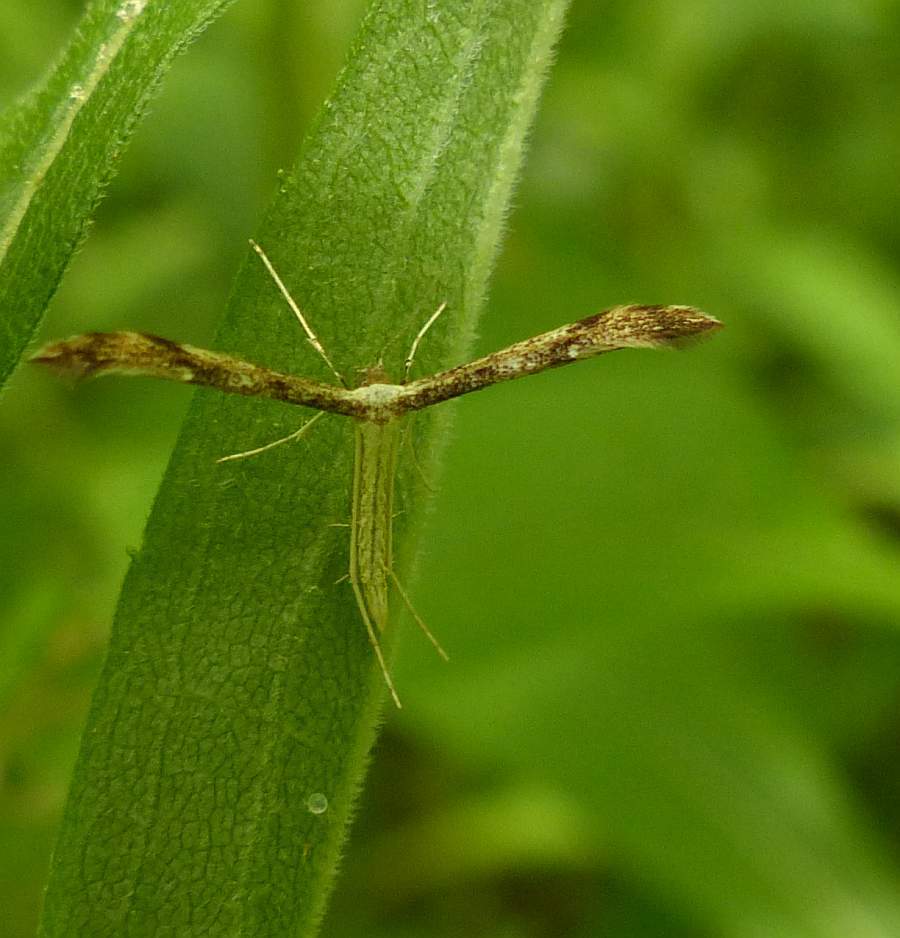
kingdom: Animalia
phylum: Arthropoda
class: Insecta
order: Lepidoptera
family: Pterophoridae
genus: Adaina
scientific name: Adaina montanus
